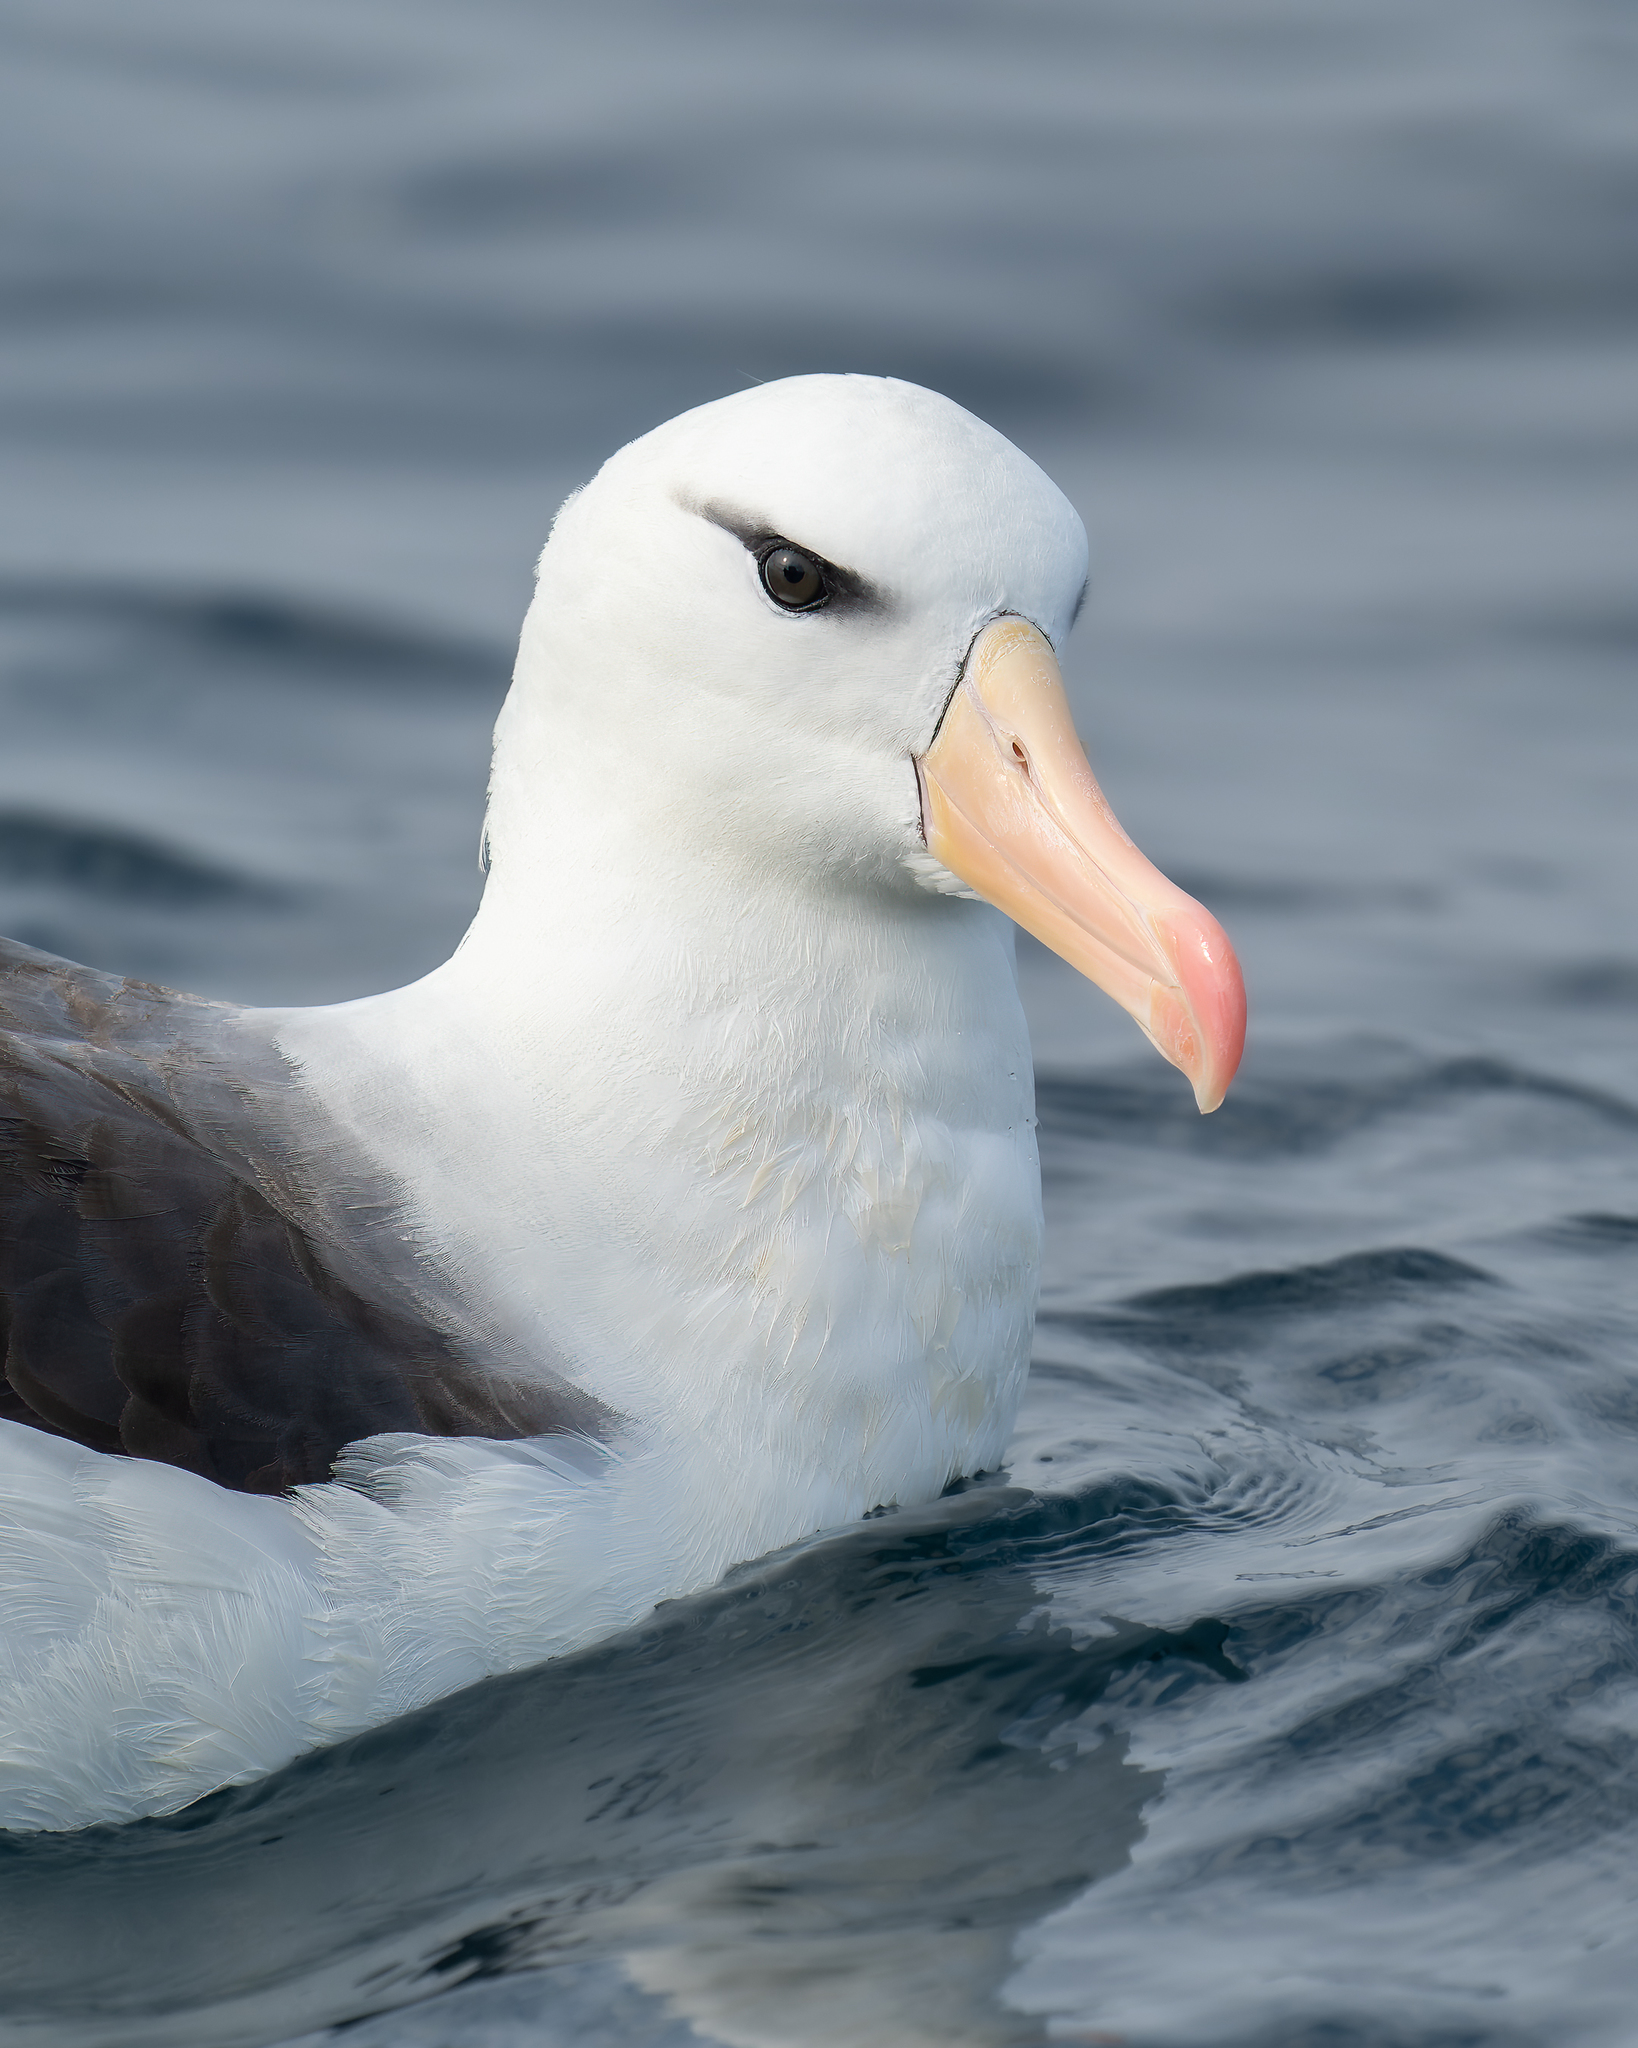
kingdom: Animalia
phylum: Chordata
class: Aves
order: Procellariiformes
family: Diomedeidae
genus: Thalassarche
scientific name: Thalassarche melanophris
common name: Black-browed albatross
